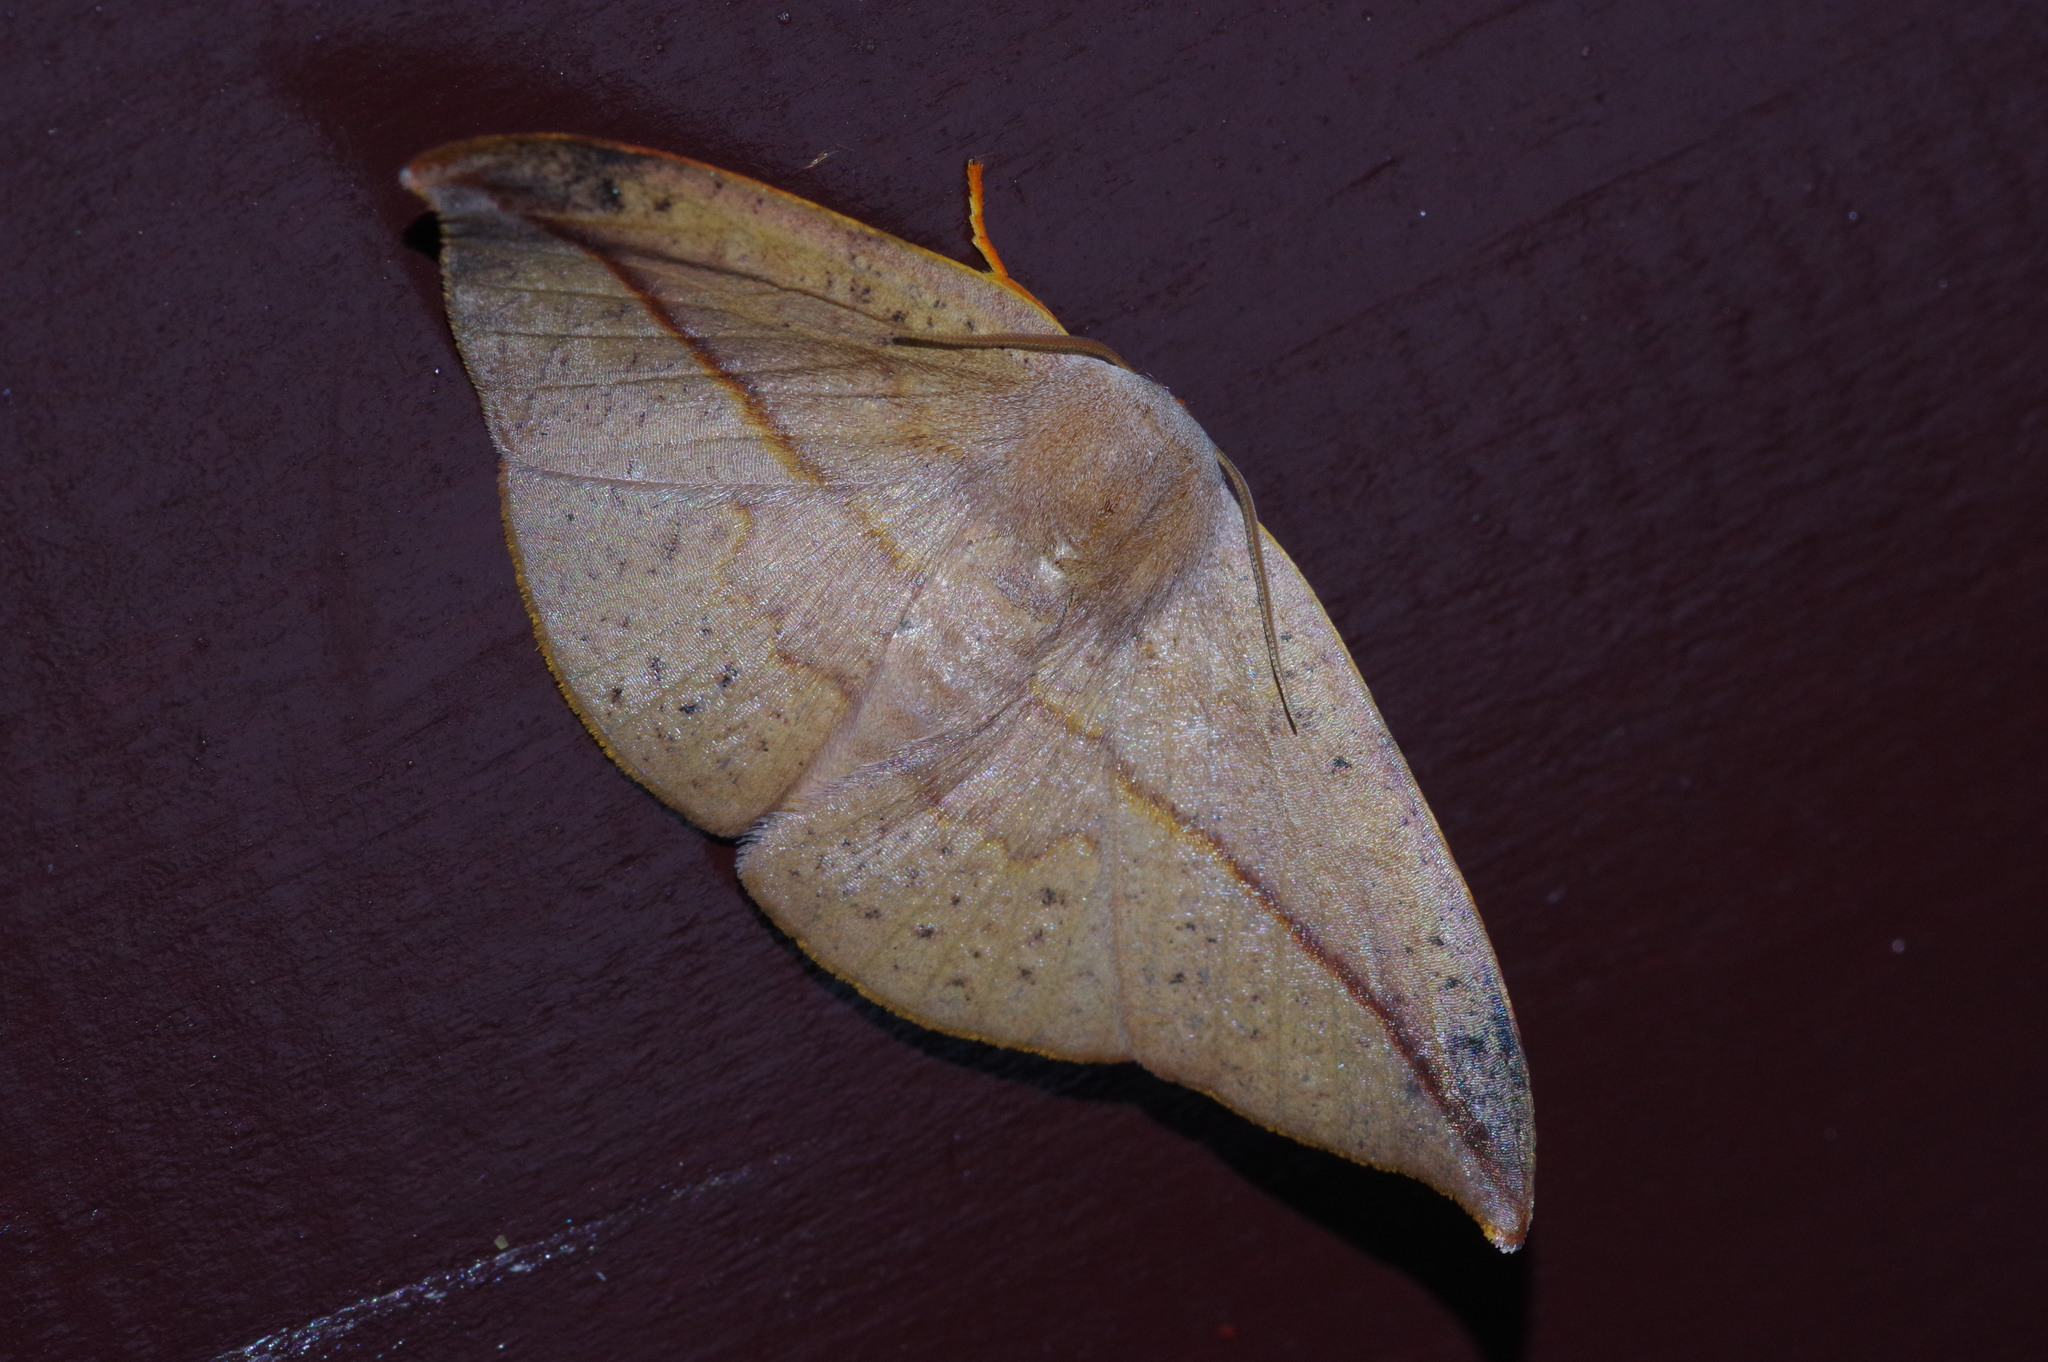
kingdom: Animalia
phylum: Arthropoda
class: Insecta
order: Lepidoptera
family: Drepanidae
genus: Oreta
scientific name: Oreta insignis
